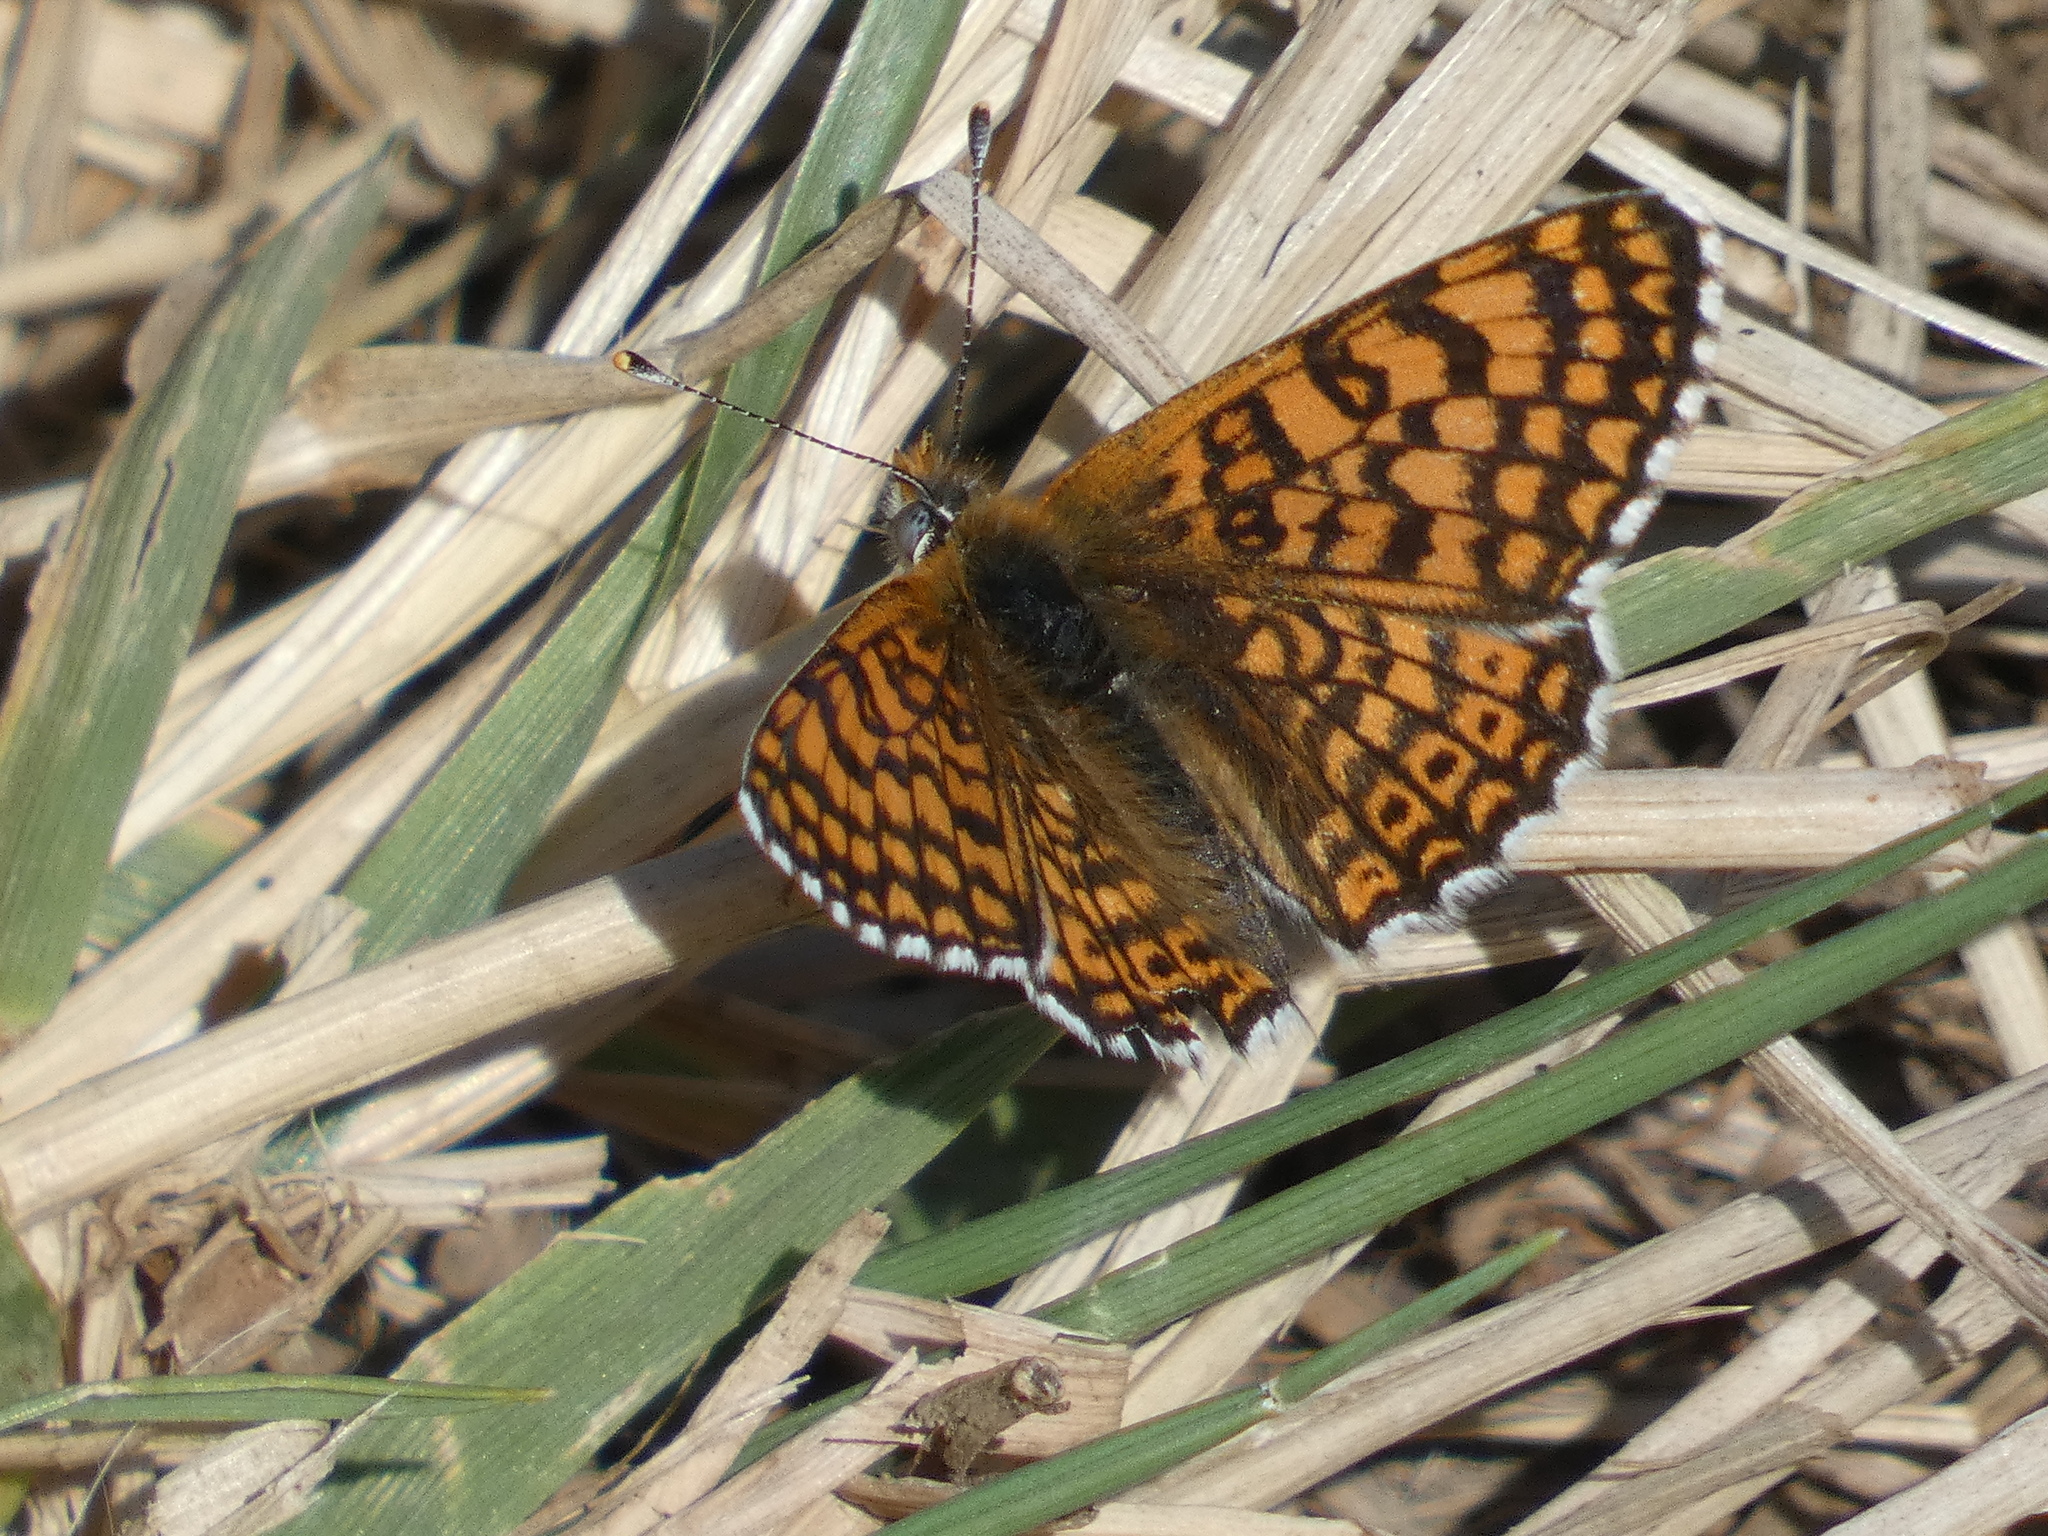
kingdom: Animalia
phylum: Arthropoda
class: Insecta
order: Lepidoptera
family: Nymphalidae
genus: Melitaea
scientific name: Melitaea cinxia
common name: Glanville fritillary
